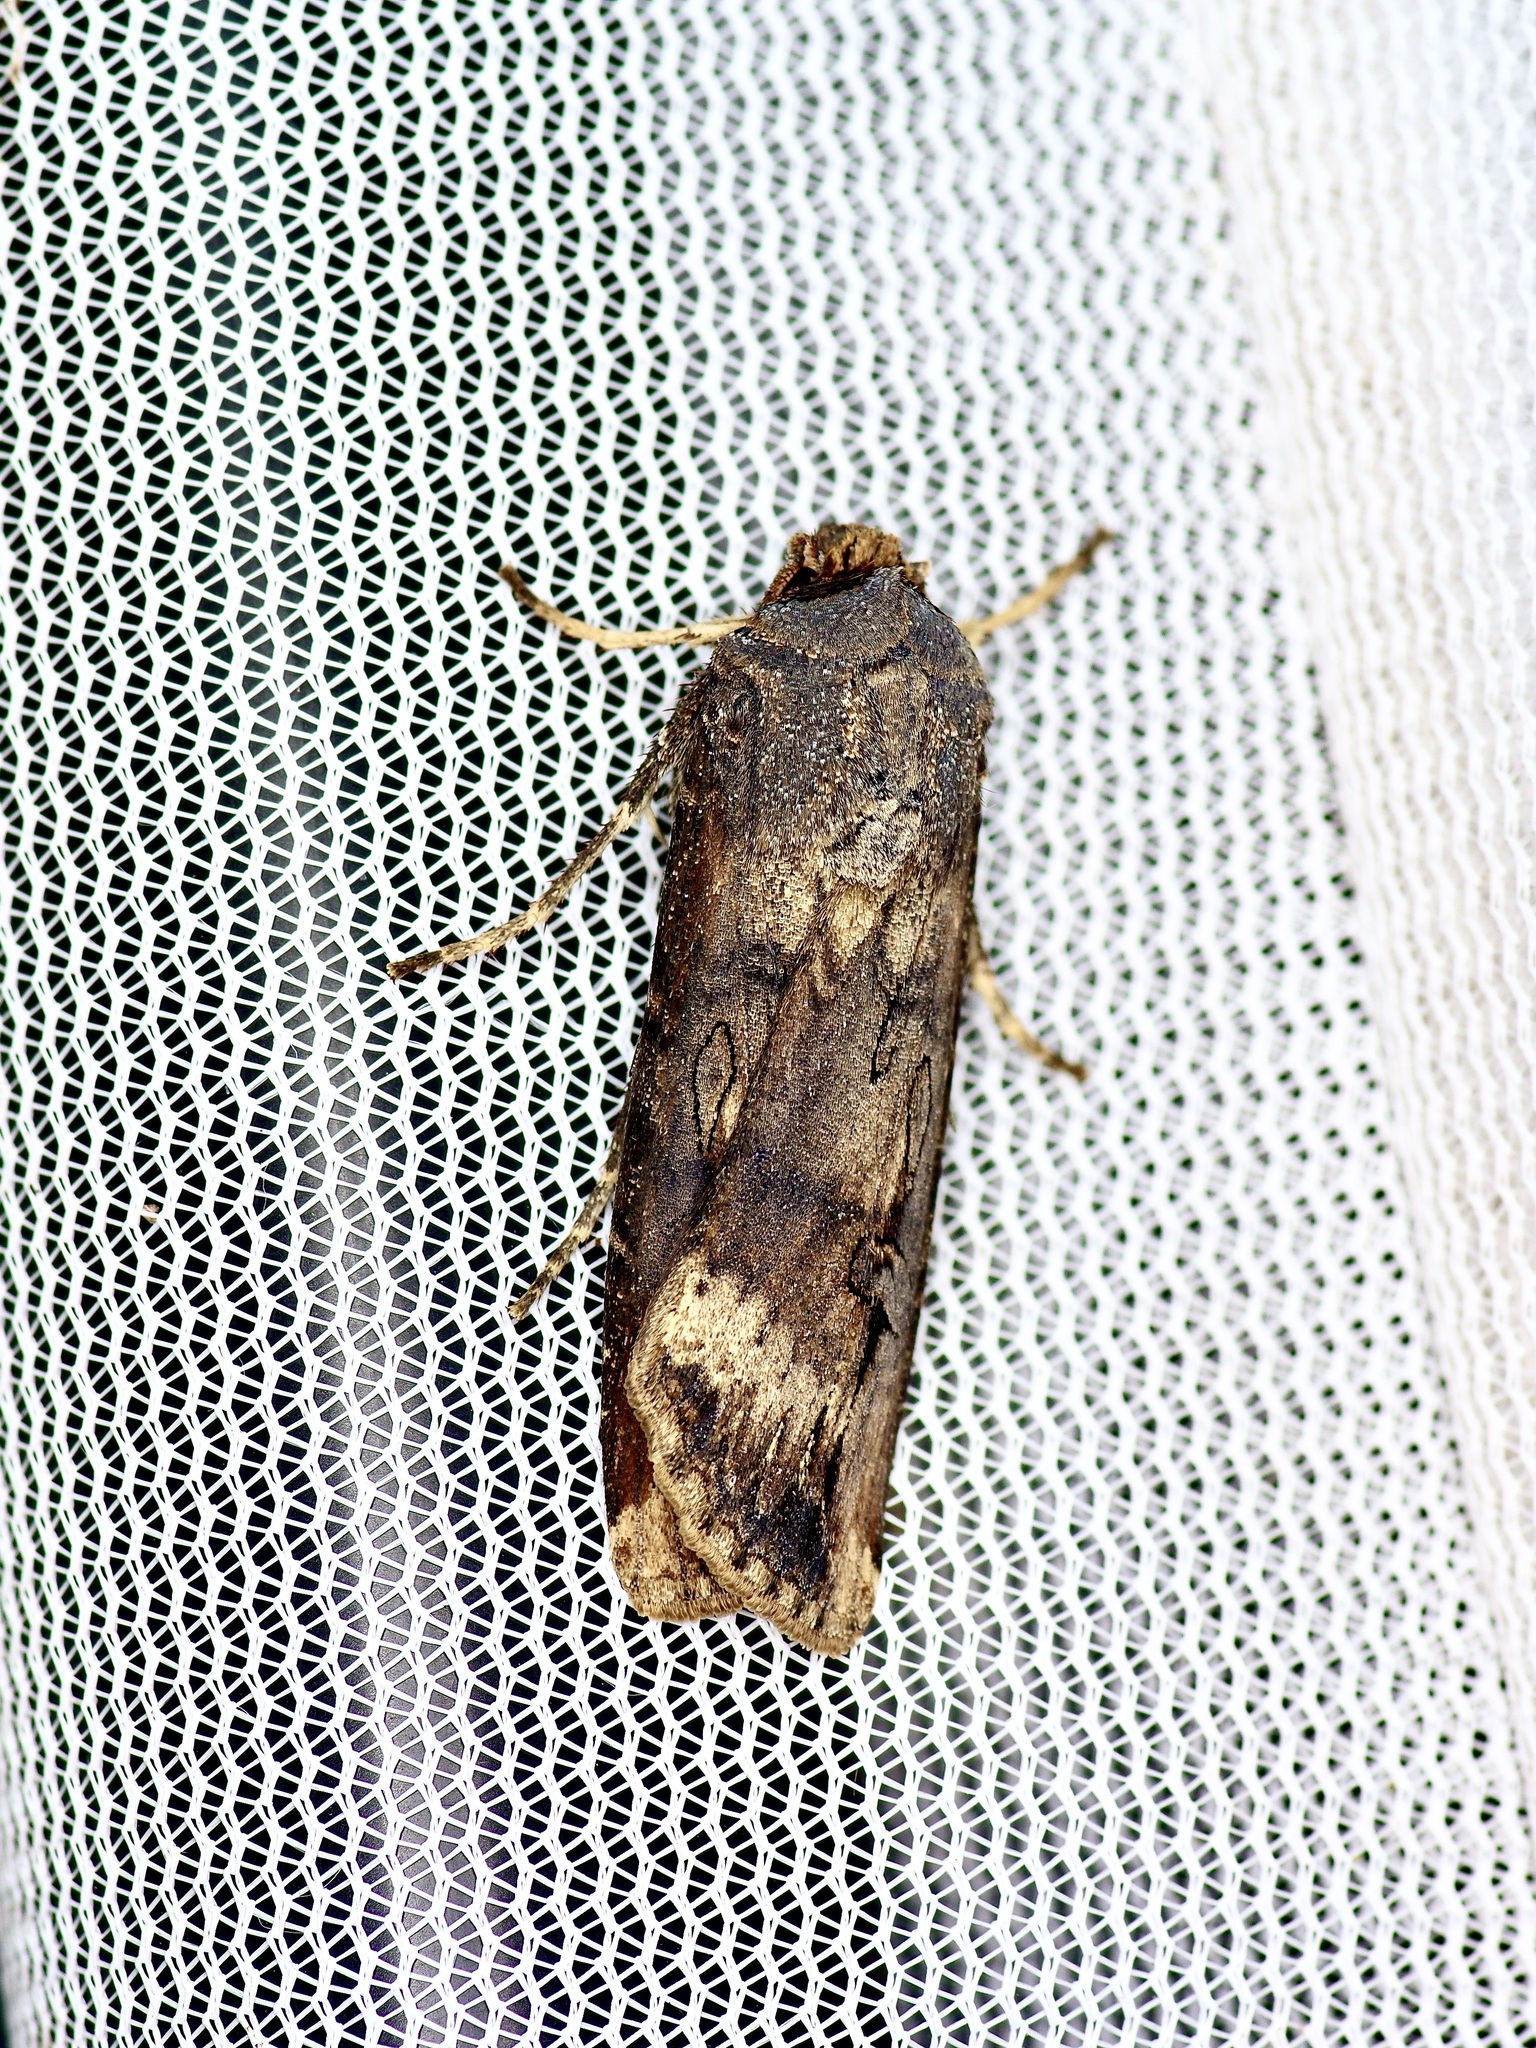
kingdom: Animalia
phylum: Arthropoda
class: Insecta
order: Lepidoptera
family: Noctuidae
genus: Agrotis
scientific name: Agrotis ipsilon
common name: Dark sword-grass
